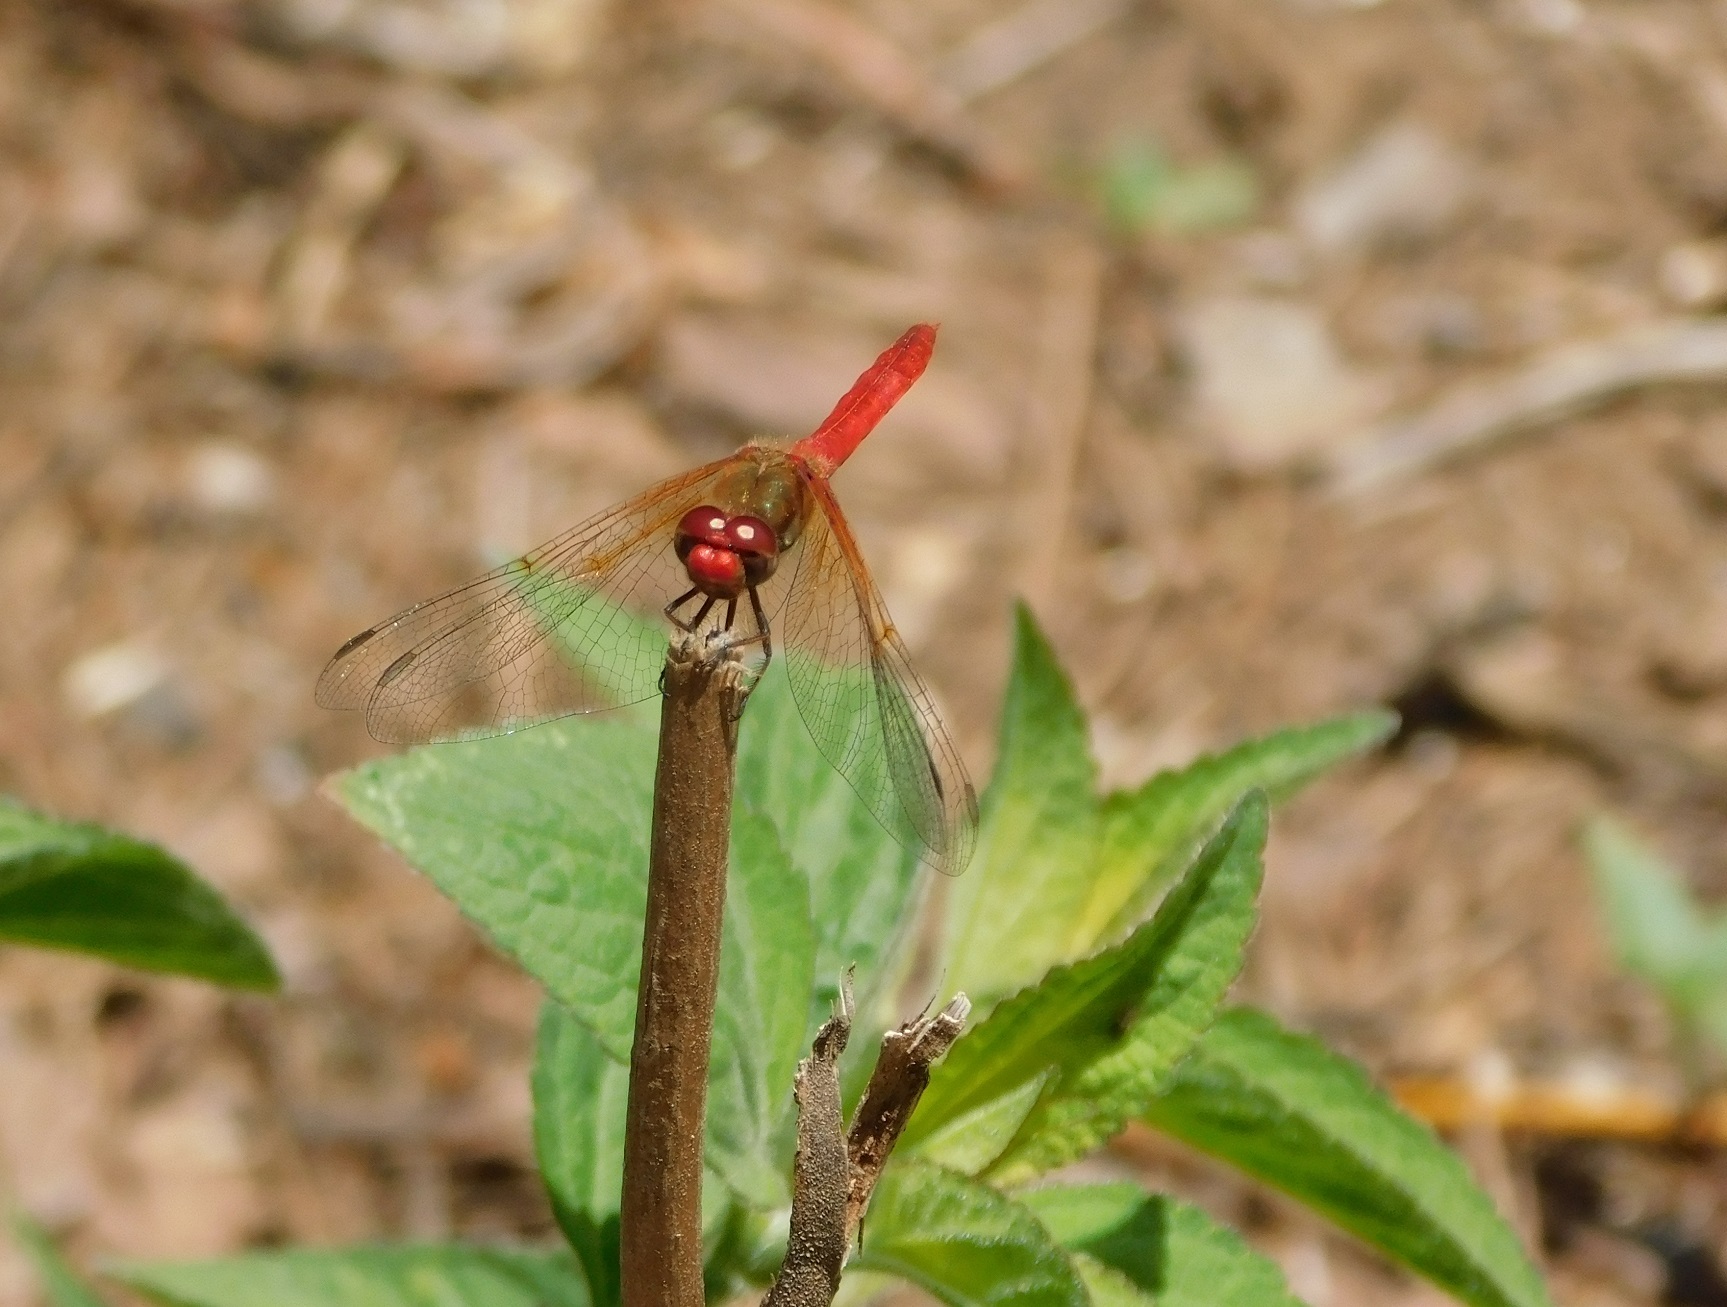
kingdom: Animalia
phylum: Arthropoda
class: Insecta
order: Odonata
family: Libellulidae
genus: Sympetrum
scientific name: Sympetrum illotum
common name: Cardinal meadowhawk
